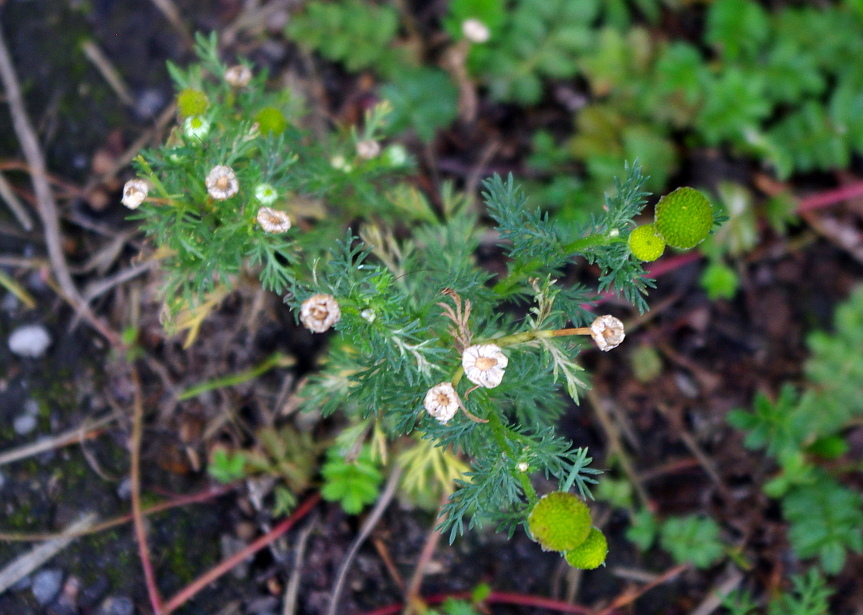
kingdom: Plantae
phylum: Tracheophyta
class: Magnoliopsida
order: Asterales
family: Asteraceae
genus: Matricaria
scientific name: Matricaria discoidea
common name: Disc mayweed
